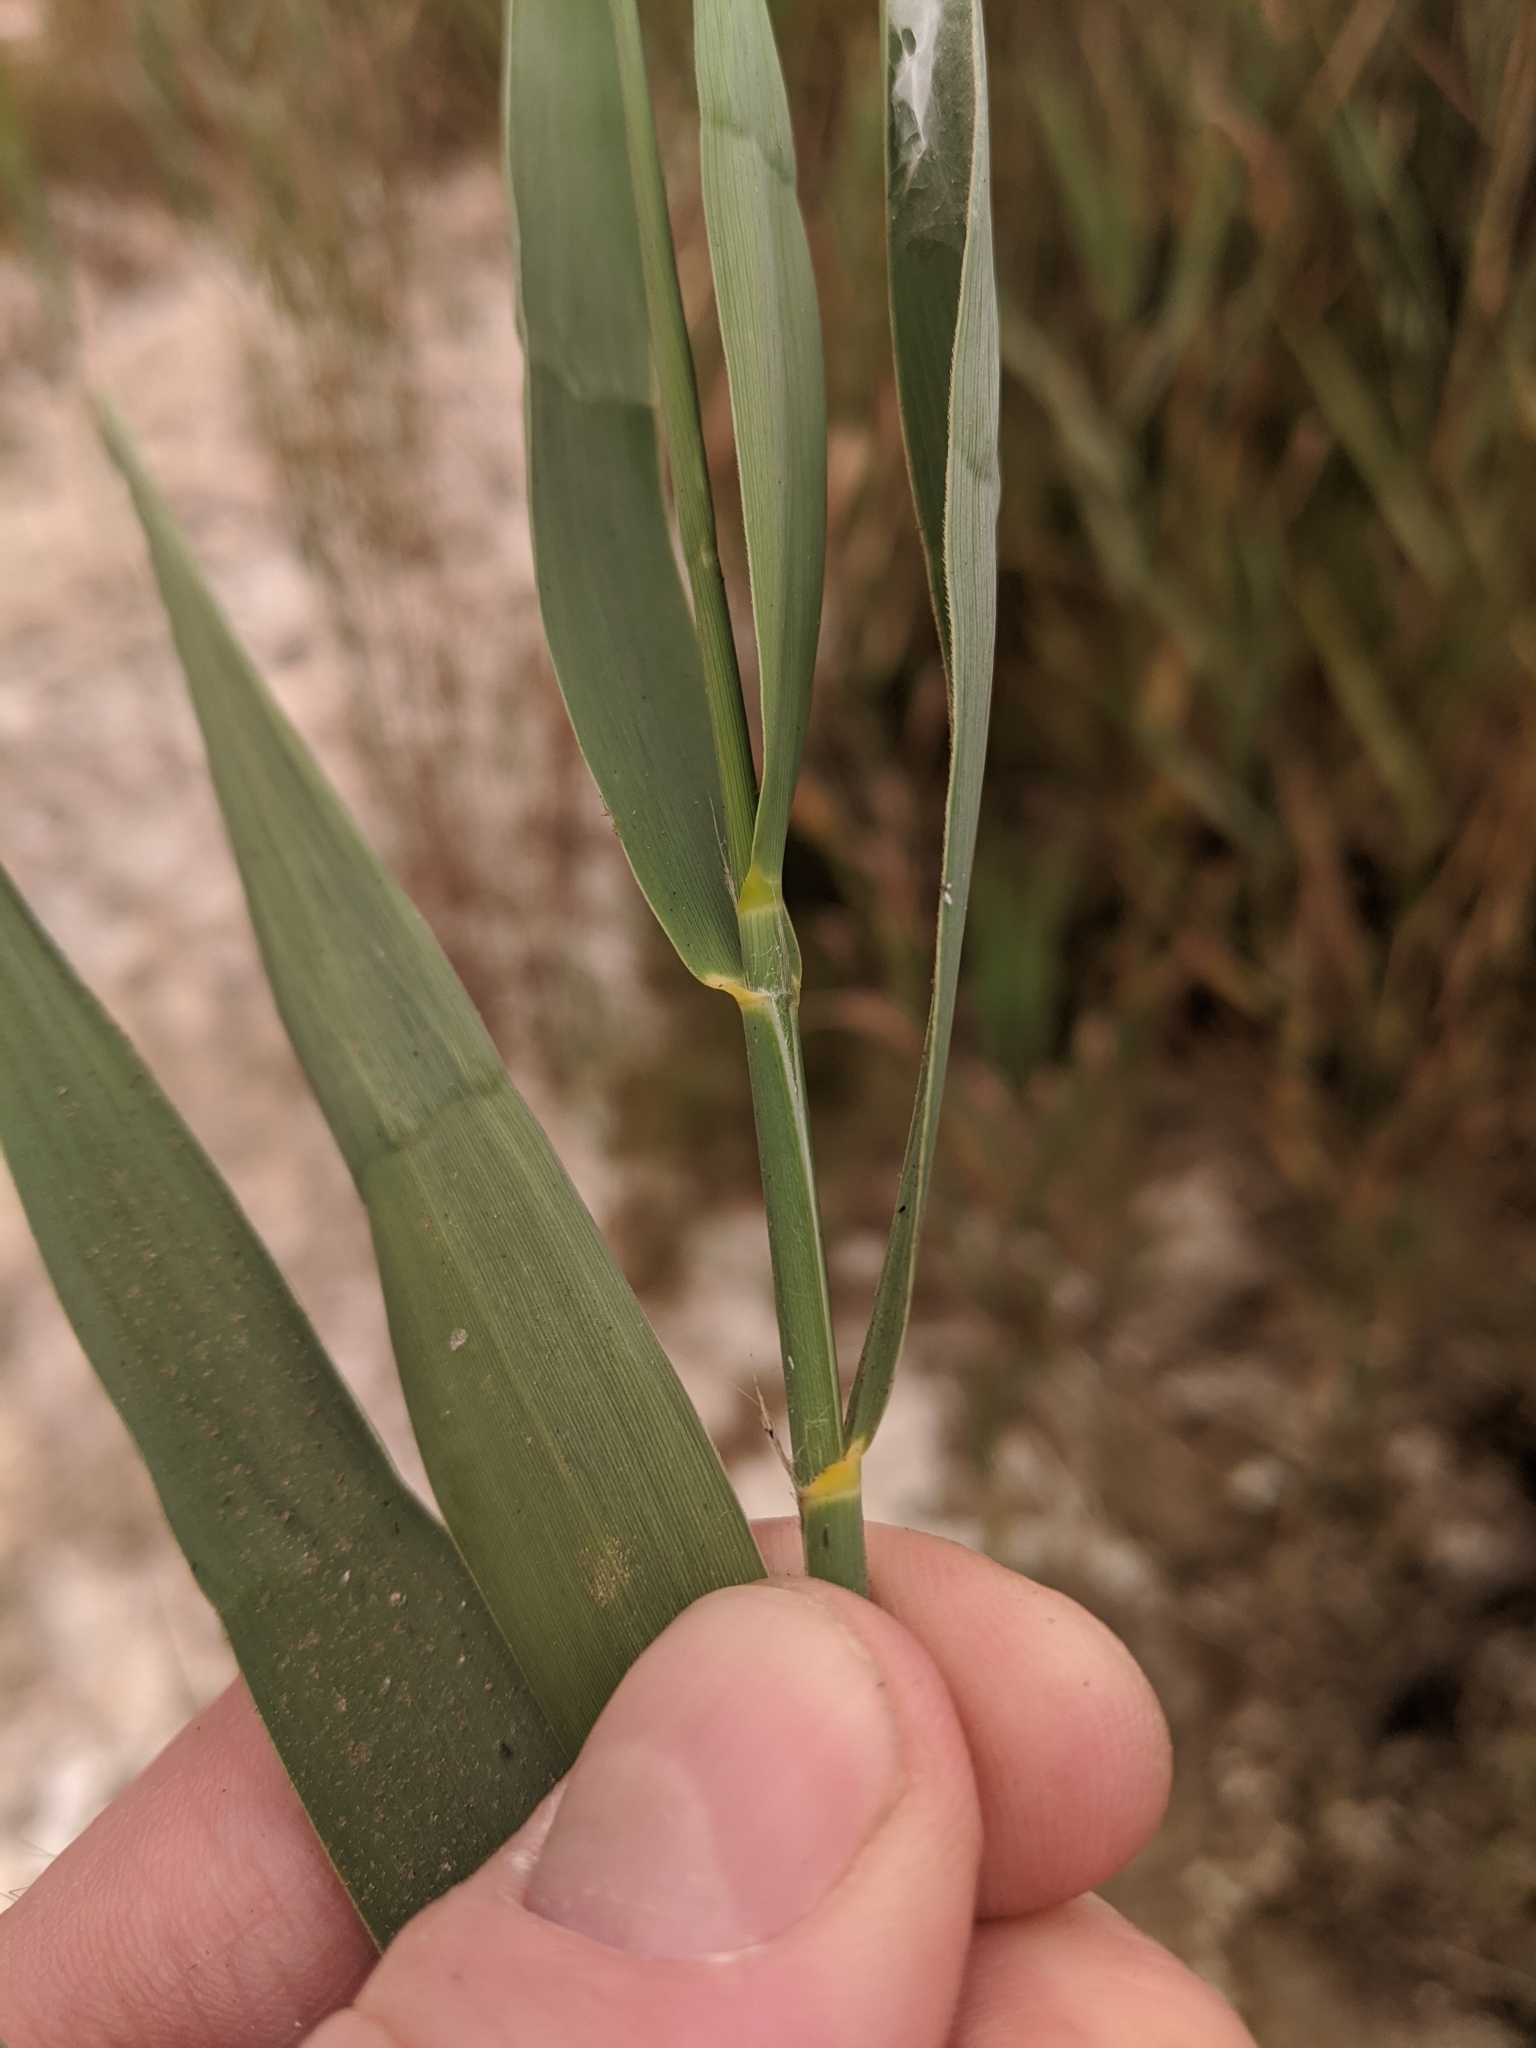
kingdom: Plantae
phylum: Tracheophyta
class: Liliopsida
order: Poales
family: Poaceae
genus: Phragmites
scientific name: Phragmites australis
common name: Common reed
